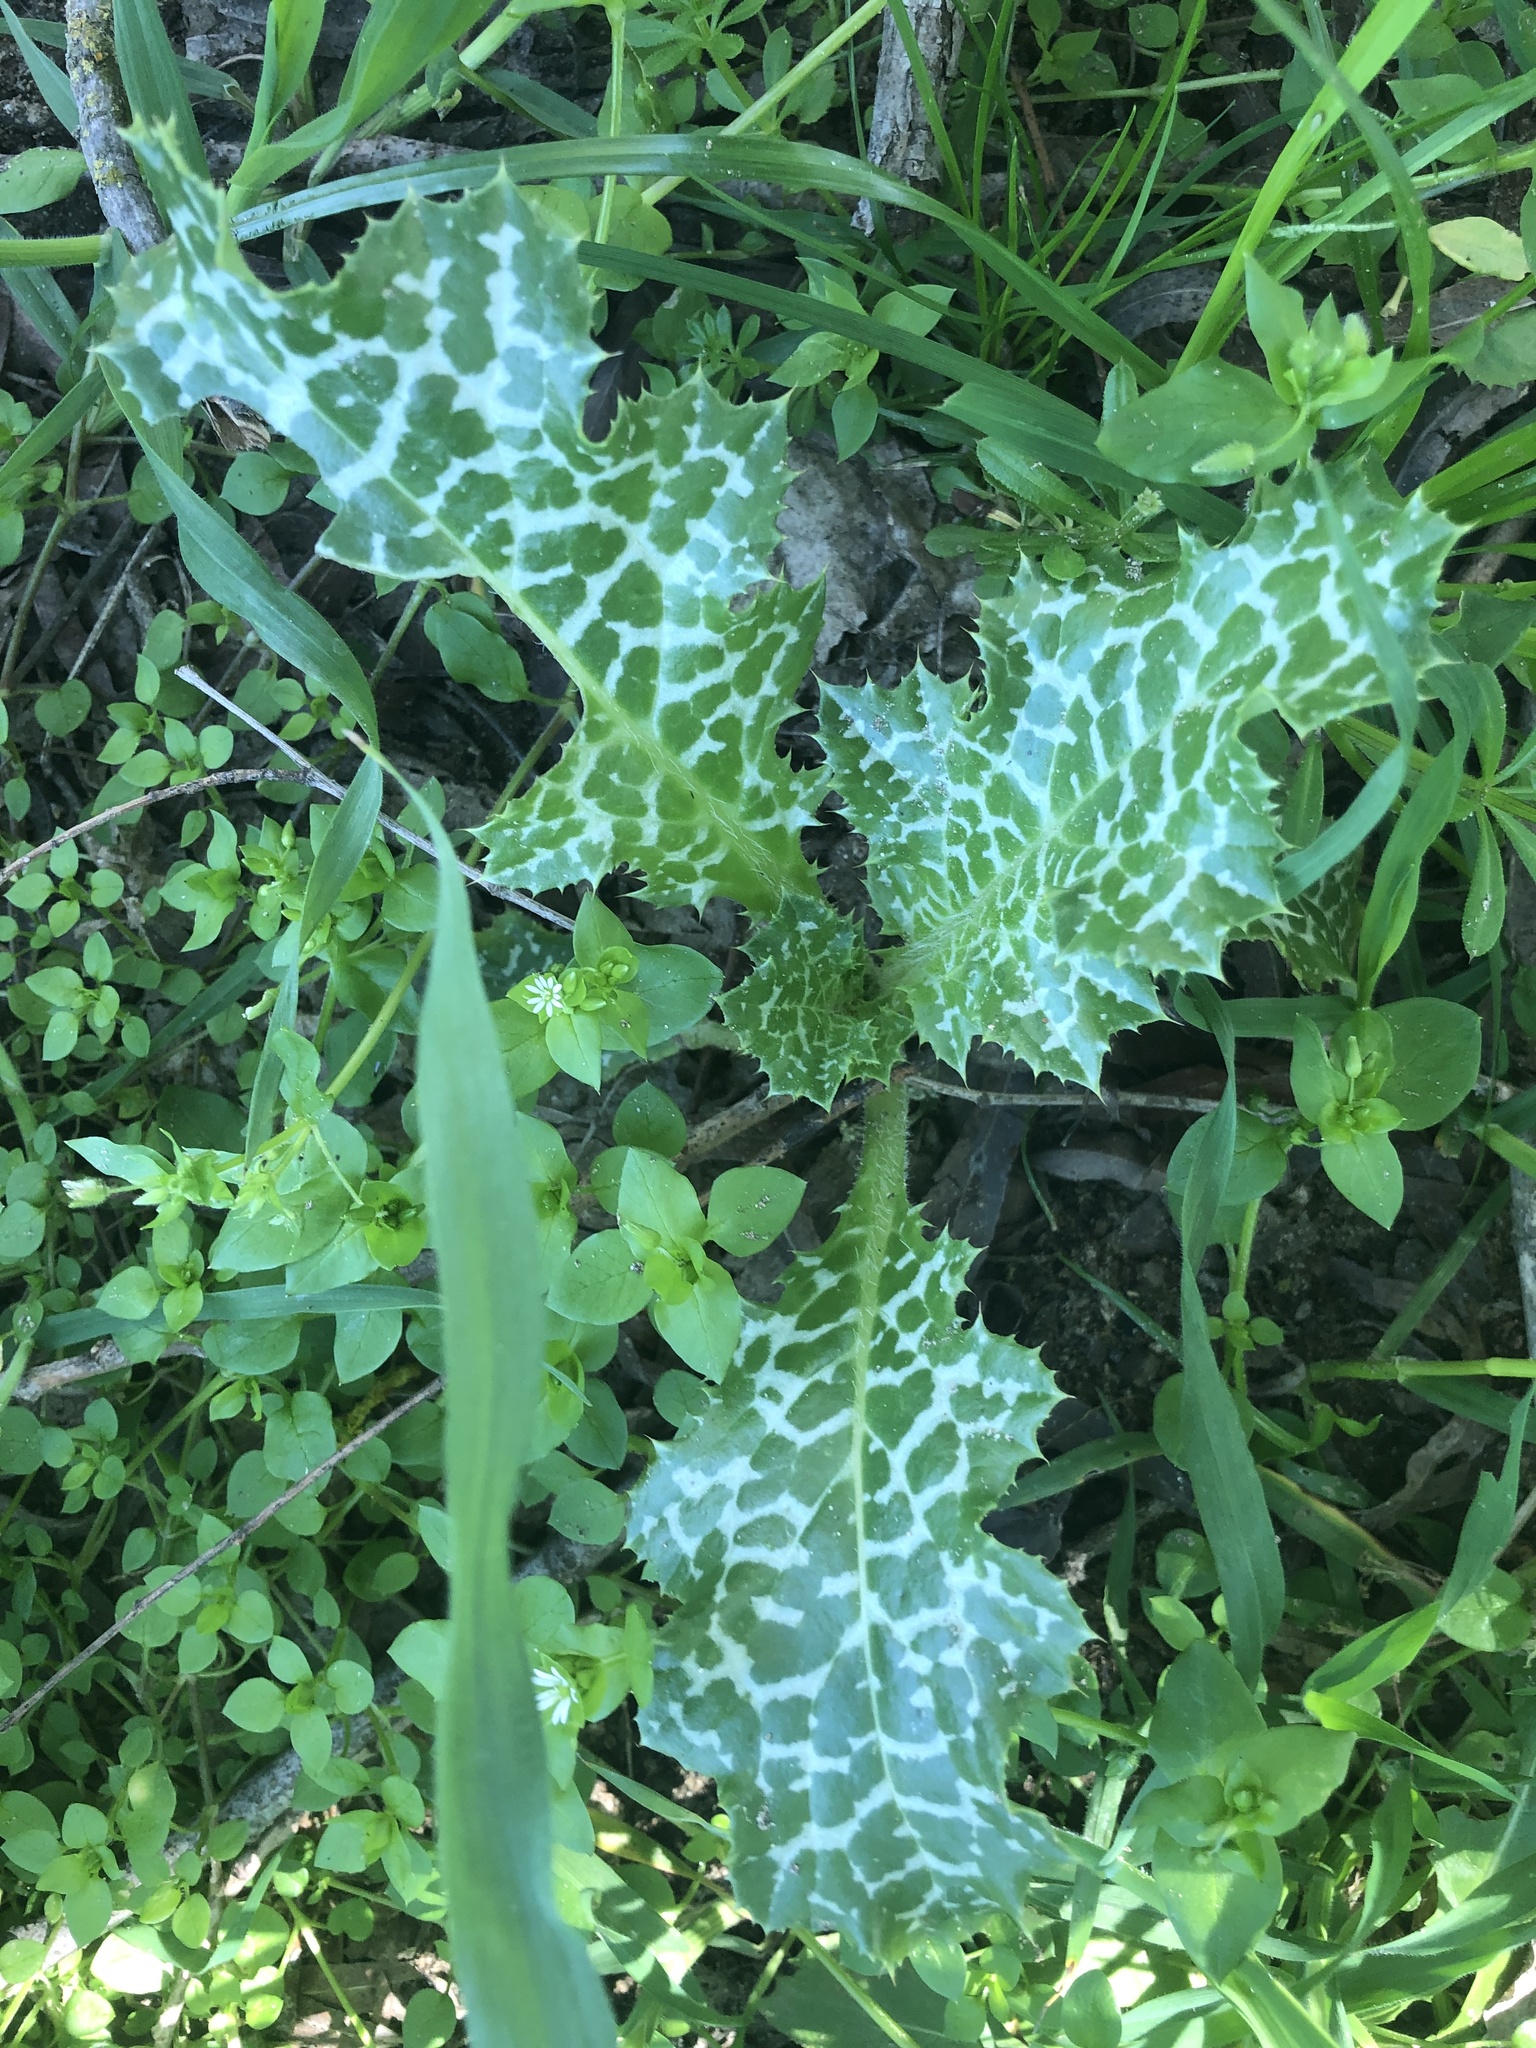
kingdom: Plantae
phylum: Tracheophyta
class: Magnoliopsida
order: Asterales
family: Asteraceae
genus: Silybum
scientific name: Silybum marianum
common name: Milk thistle
